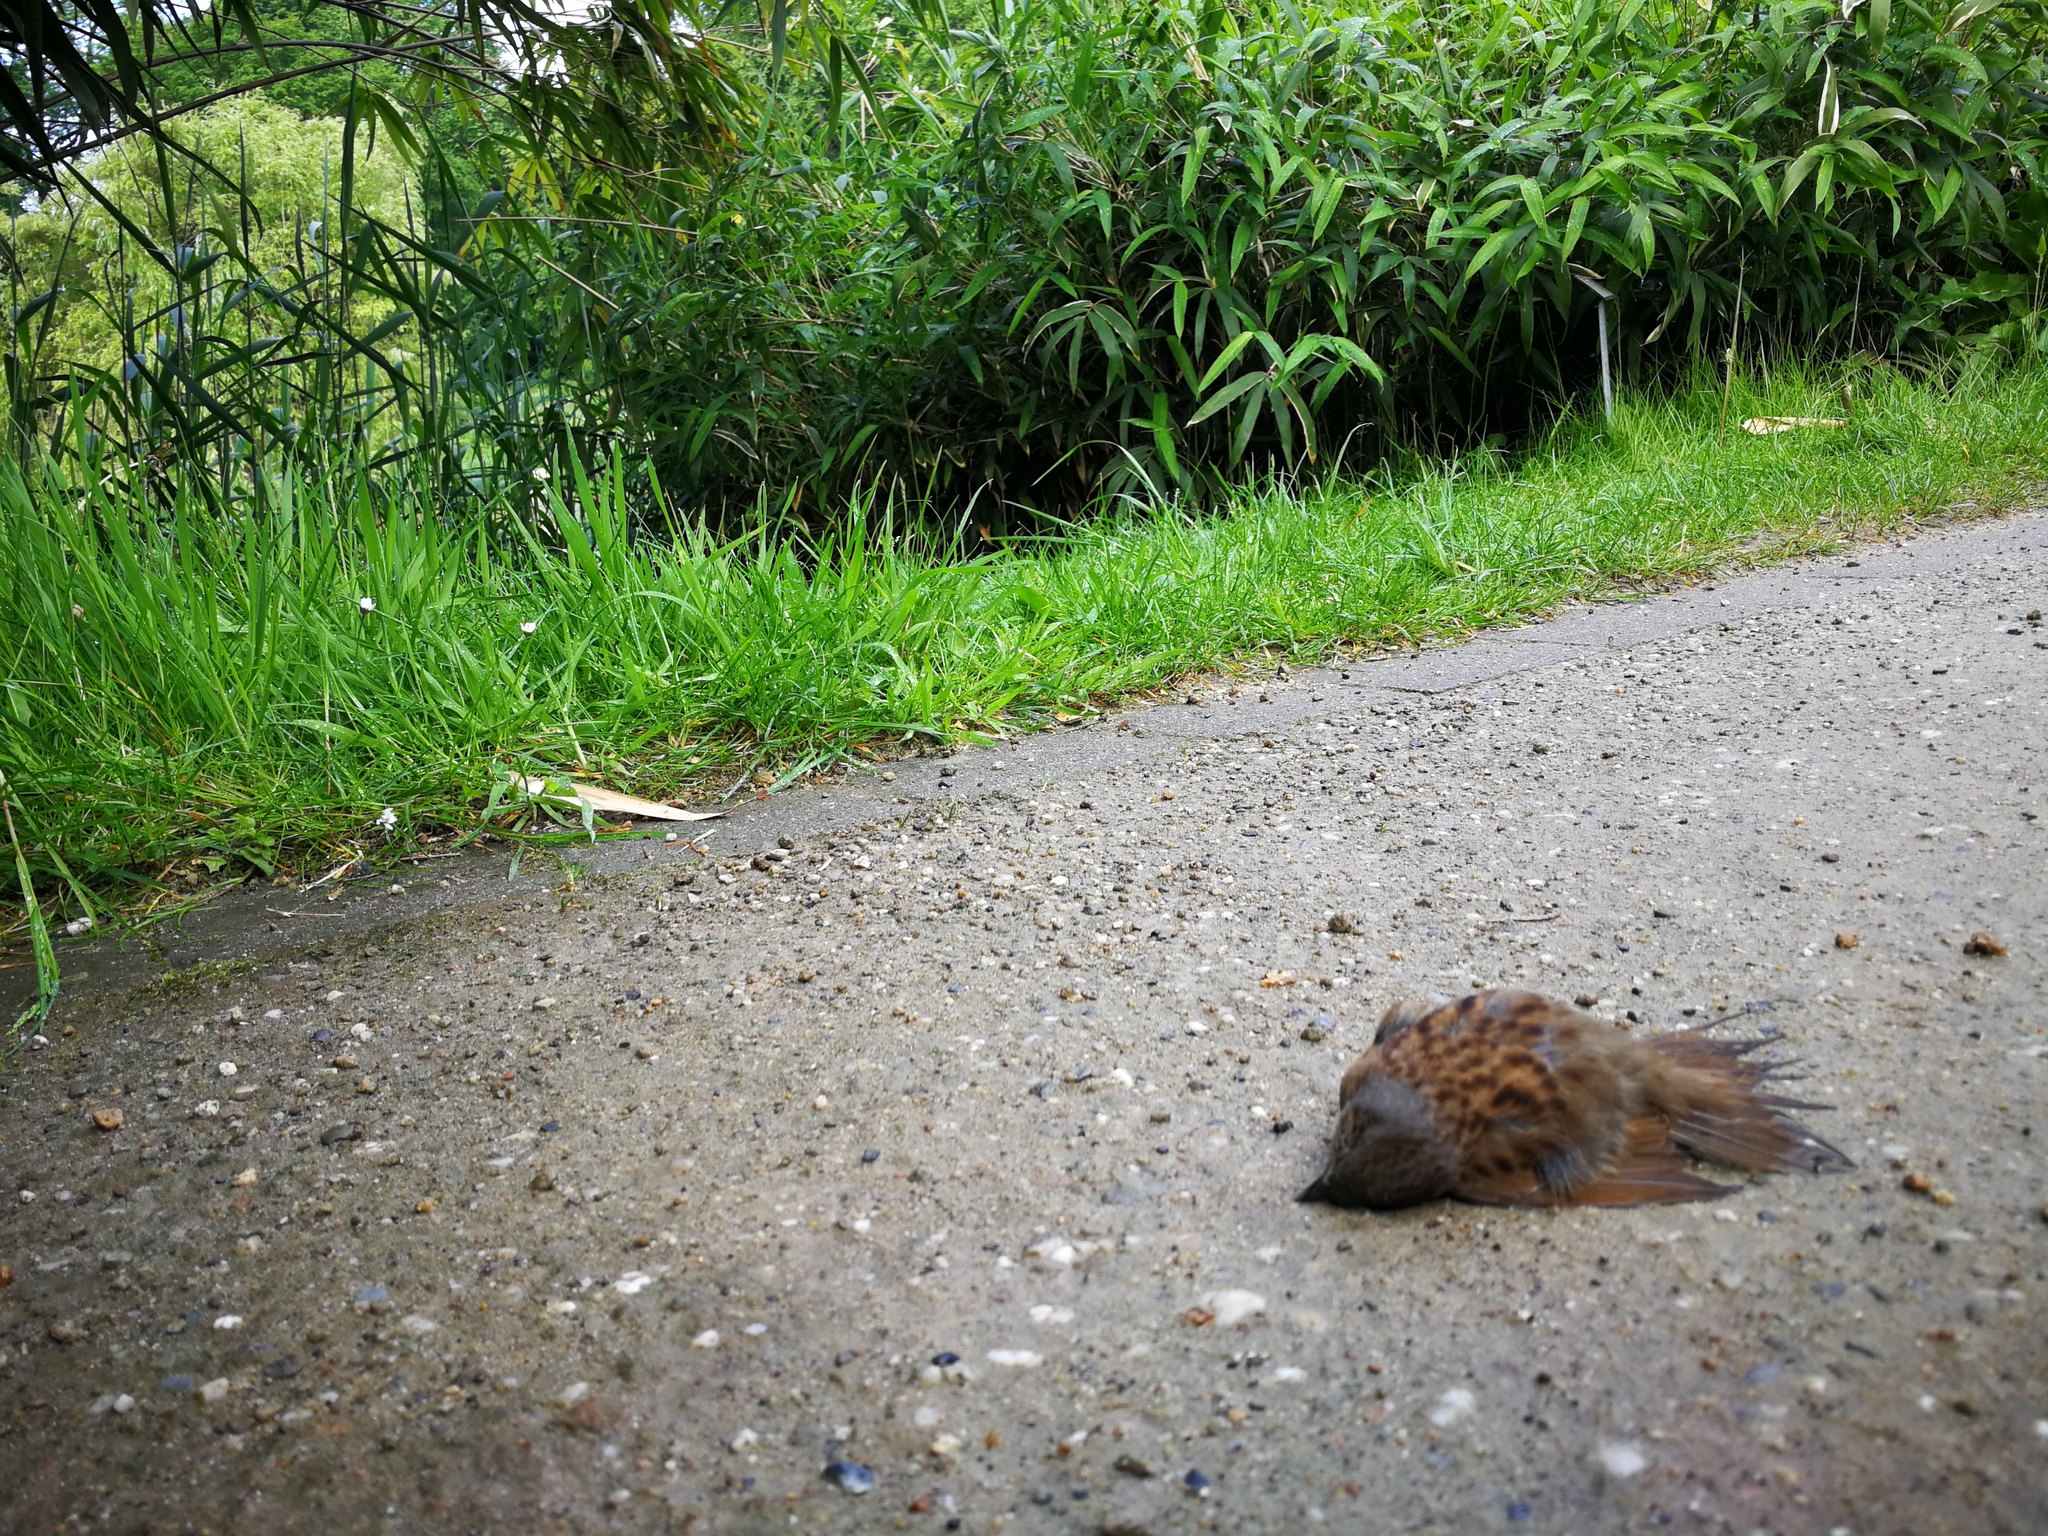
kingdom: Animalia
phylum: Chordata
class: Aves
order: Passeriformes
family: Prunellidae
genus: Prunella
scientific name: Prunella modularis
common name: Dunnock
